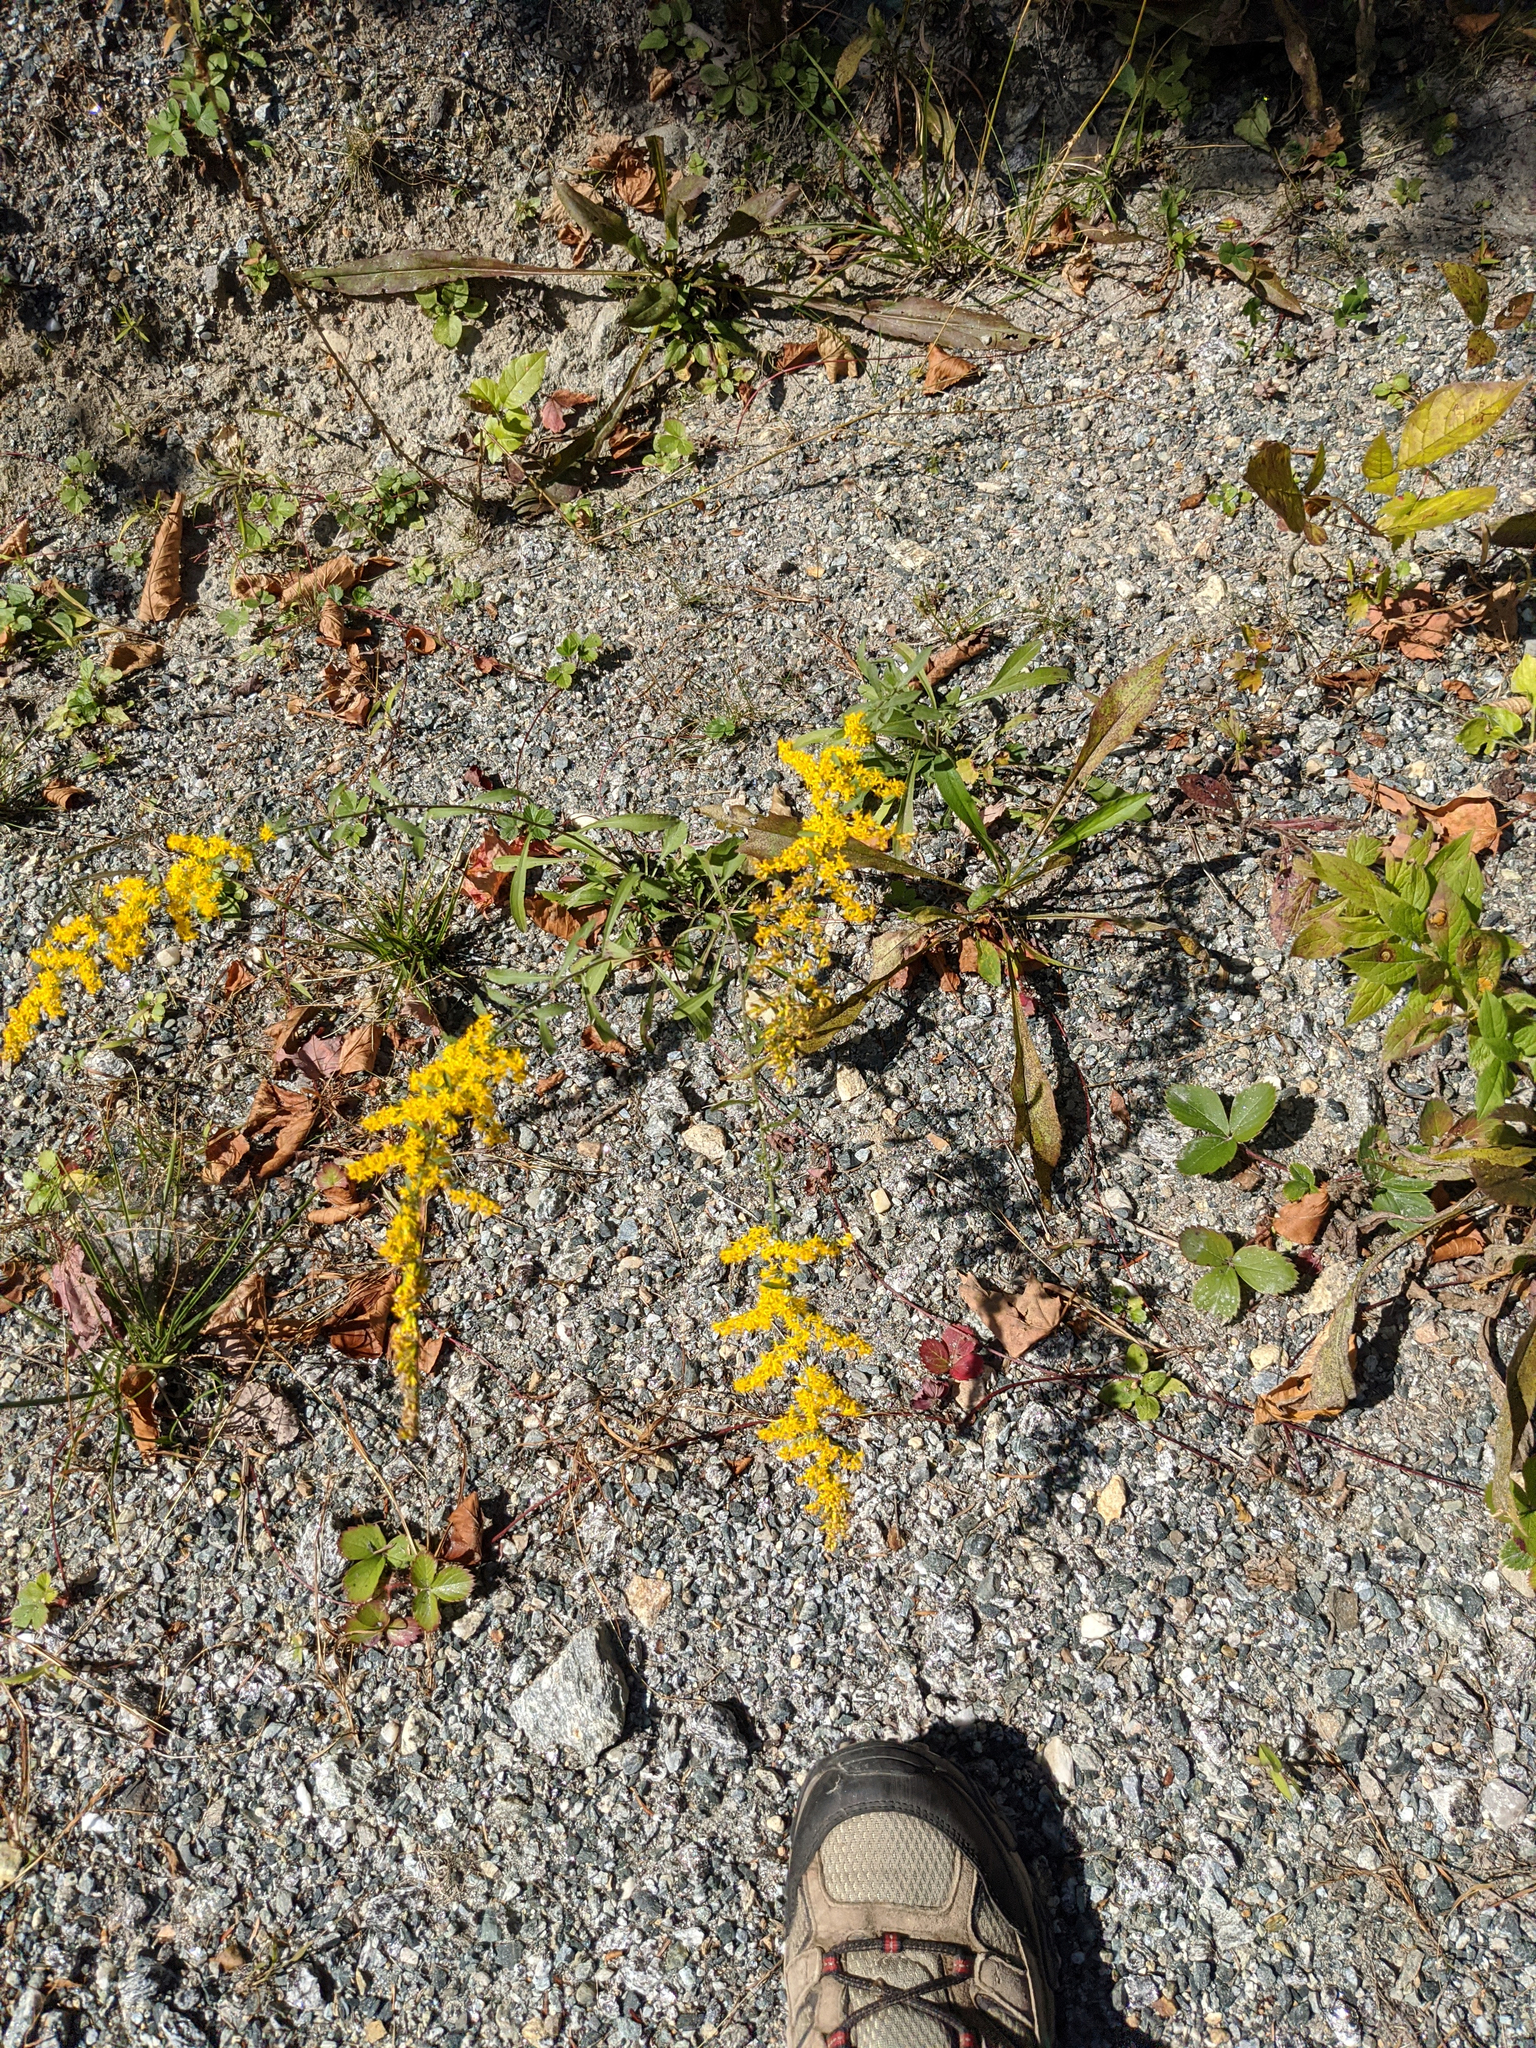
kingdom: Plantae
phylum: Tracheophyta
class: Magnoliopsida
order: Asterales
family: Asteraceae
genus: Solidago
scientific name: Solidago nemoralis
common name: Grey goldenrod
